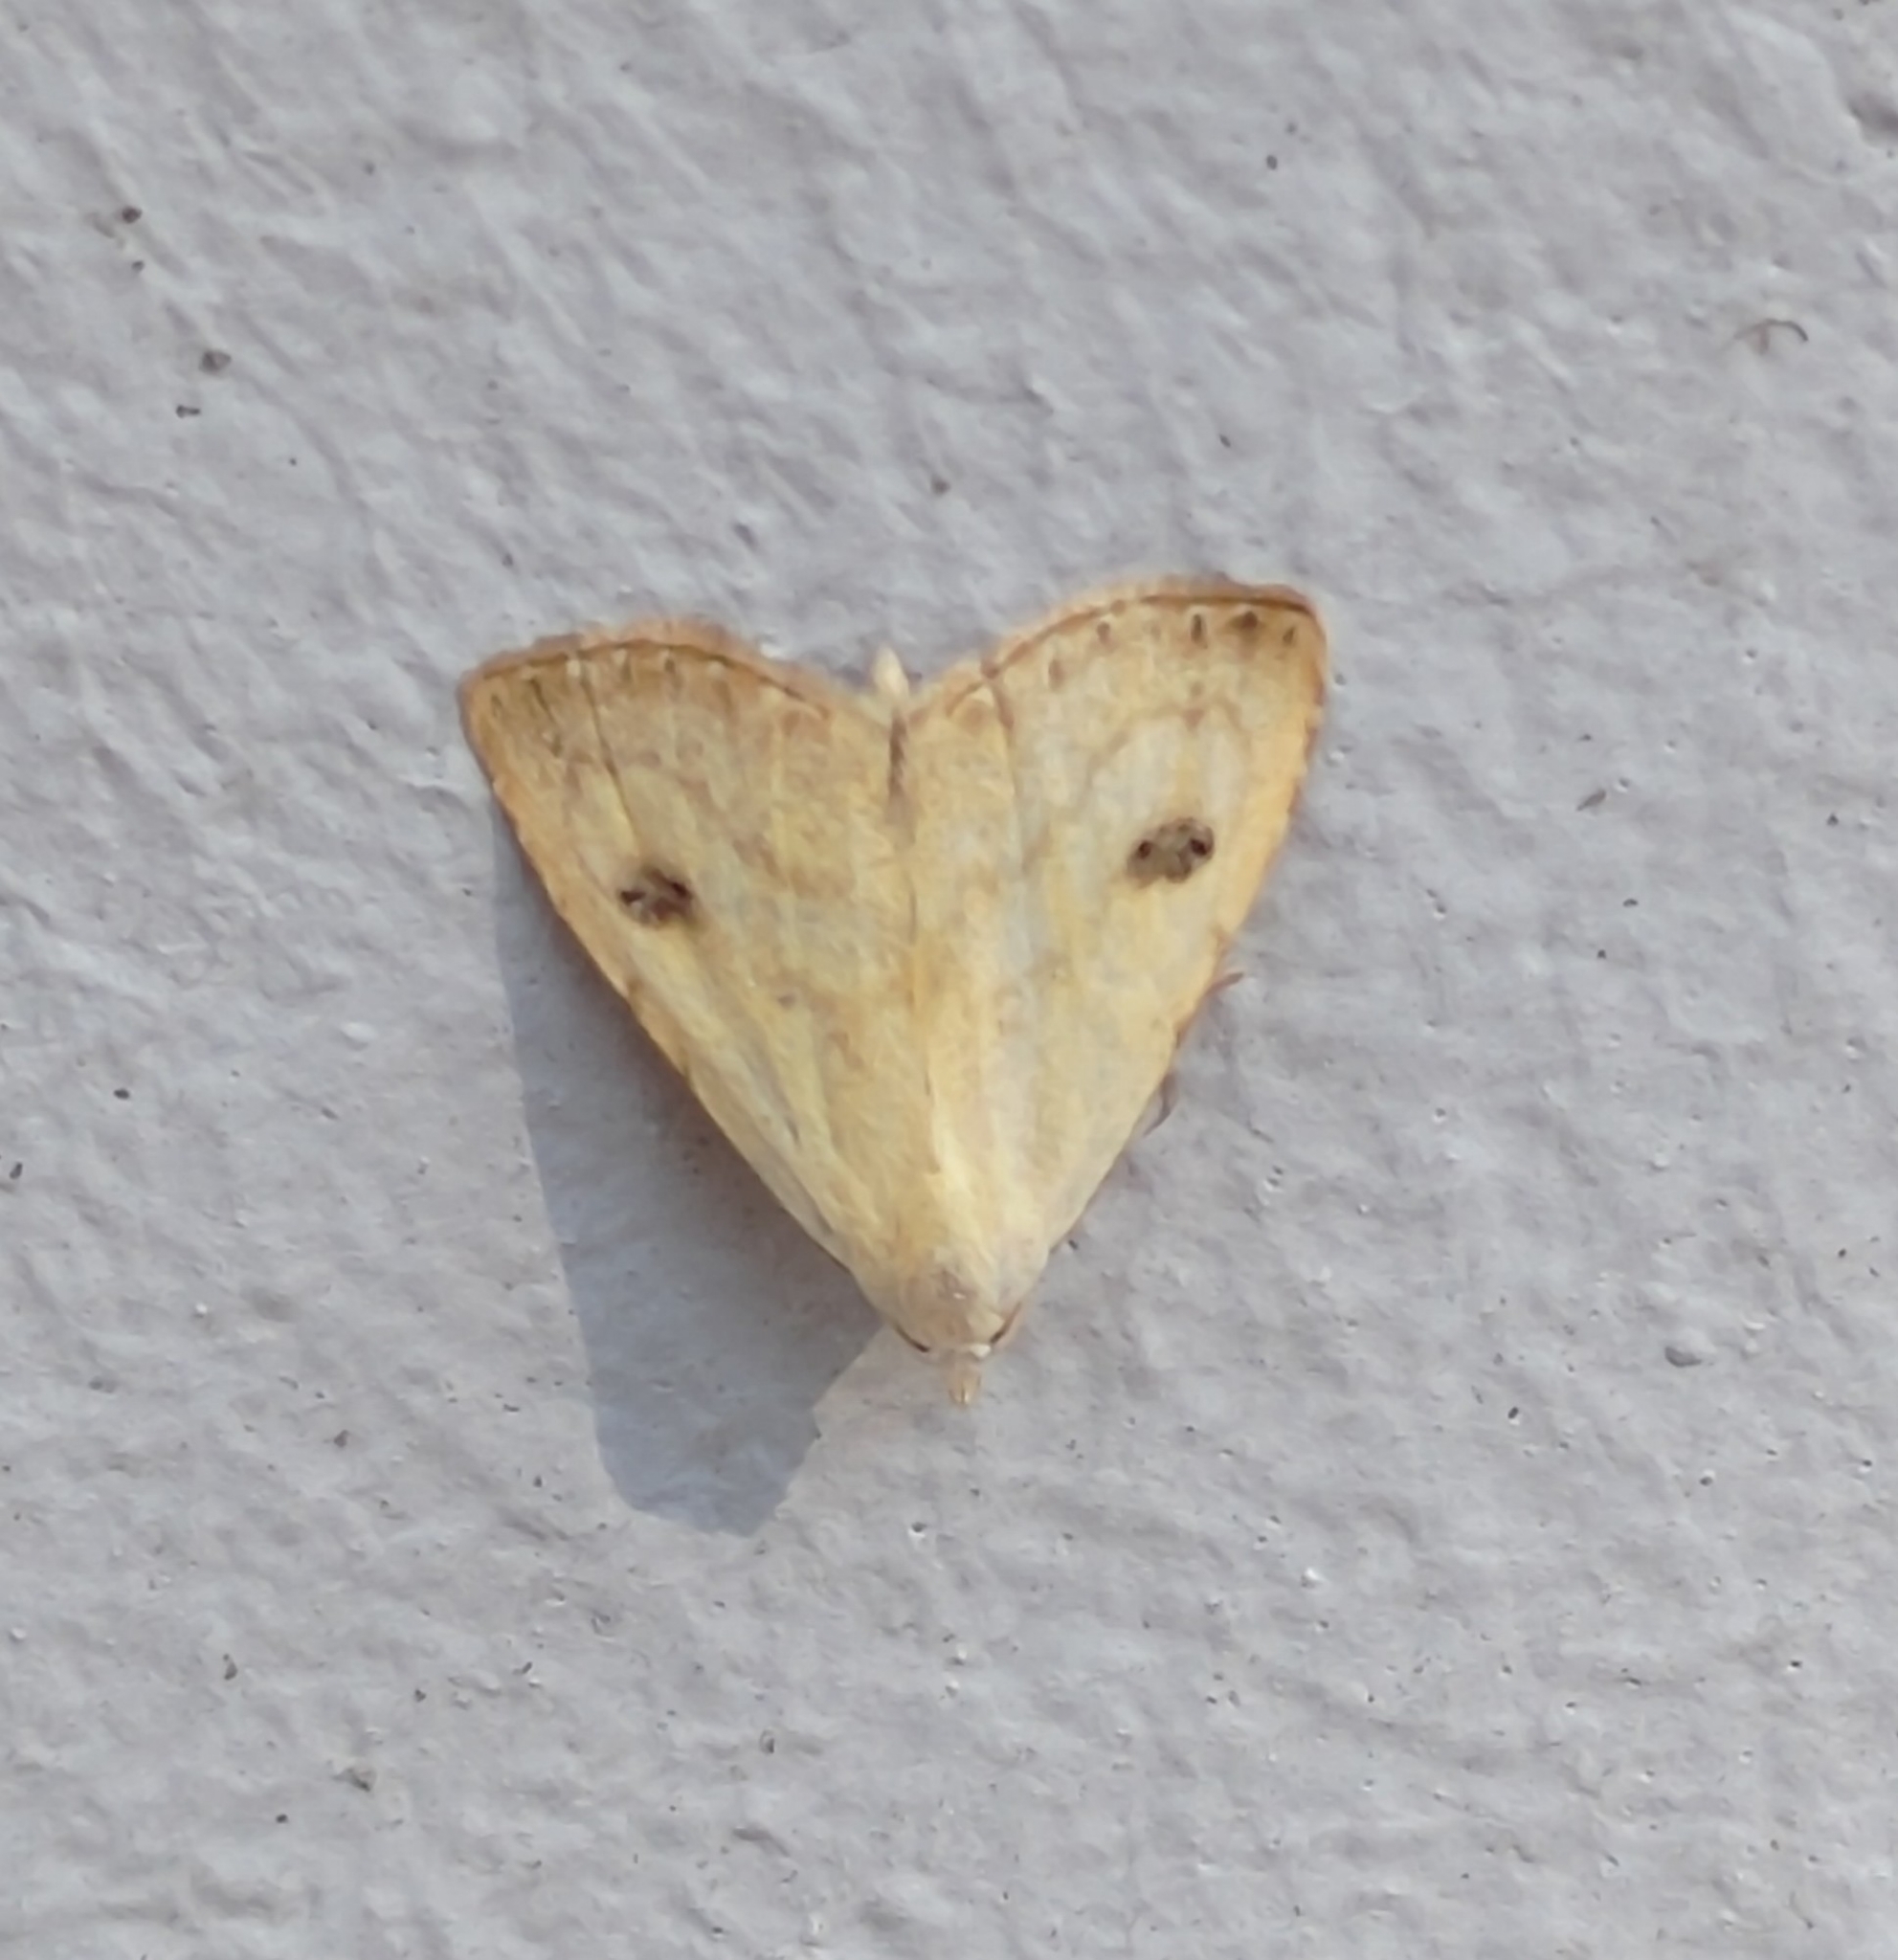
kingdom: Animalia
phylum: Arthropoda
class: Insecta
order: Lepidoptera
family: Erebidae
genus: Rivula
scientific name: Rivula sericealis
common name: Straw dot
